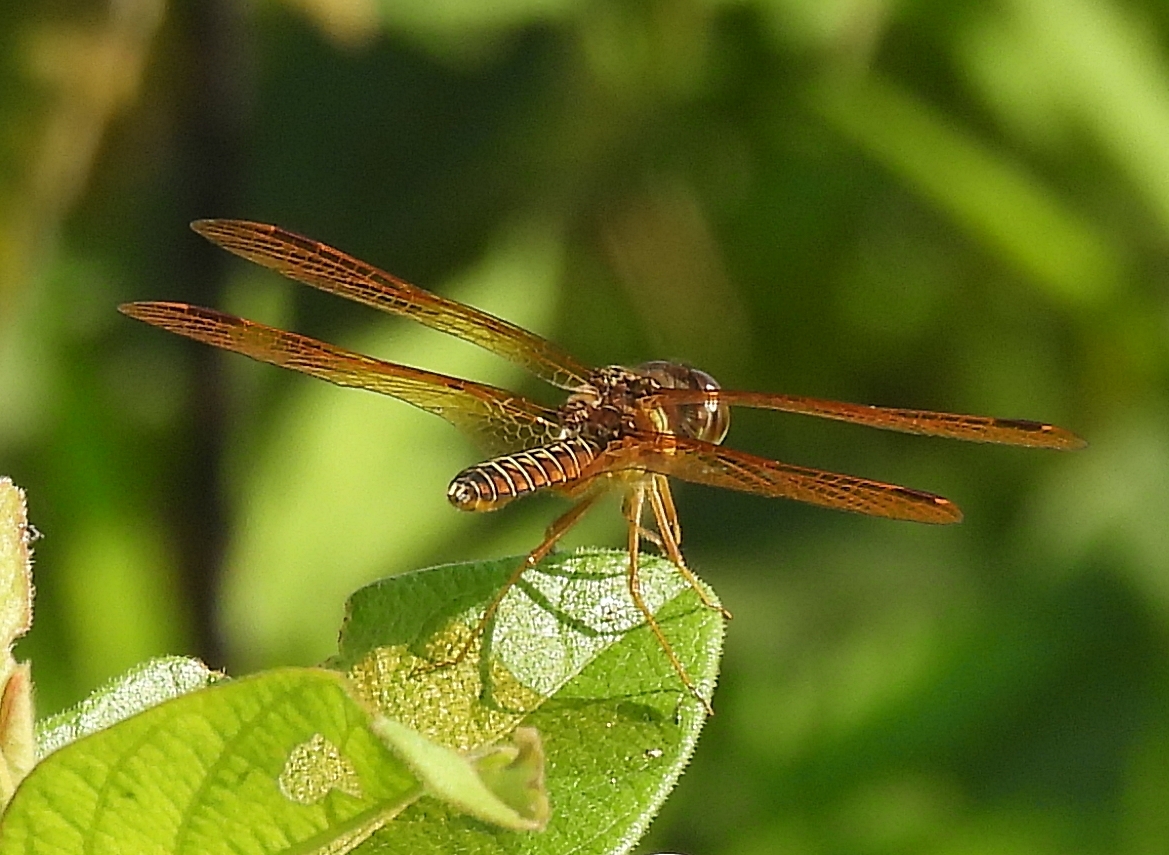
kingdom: Animalia
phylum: Arthropoda
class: Insecta
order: Odonata
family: Libellulidae
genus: Perithemis
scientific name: Perithemis tenera
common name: Eastern amberwing
